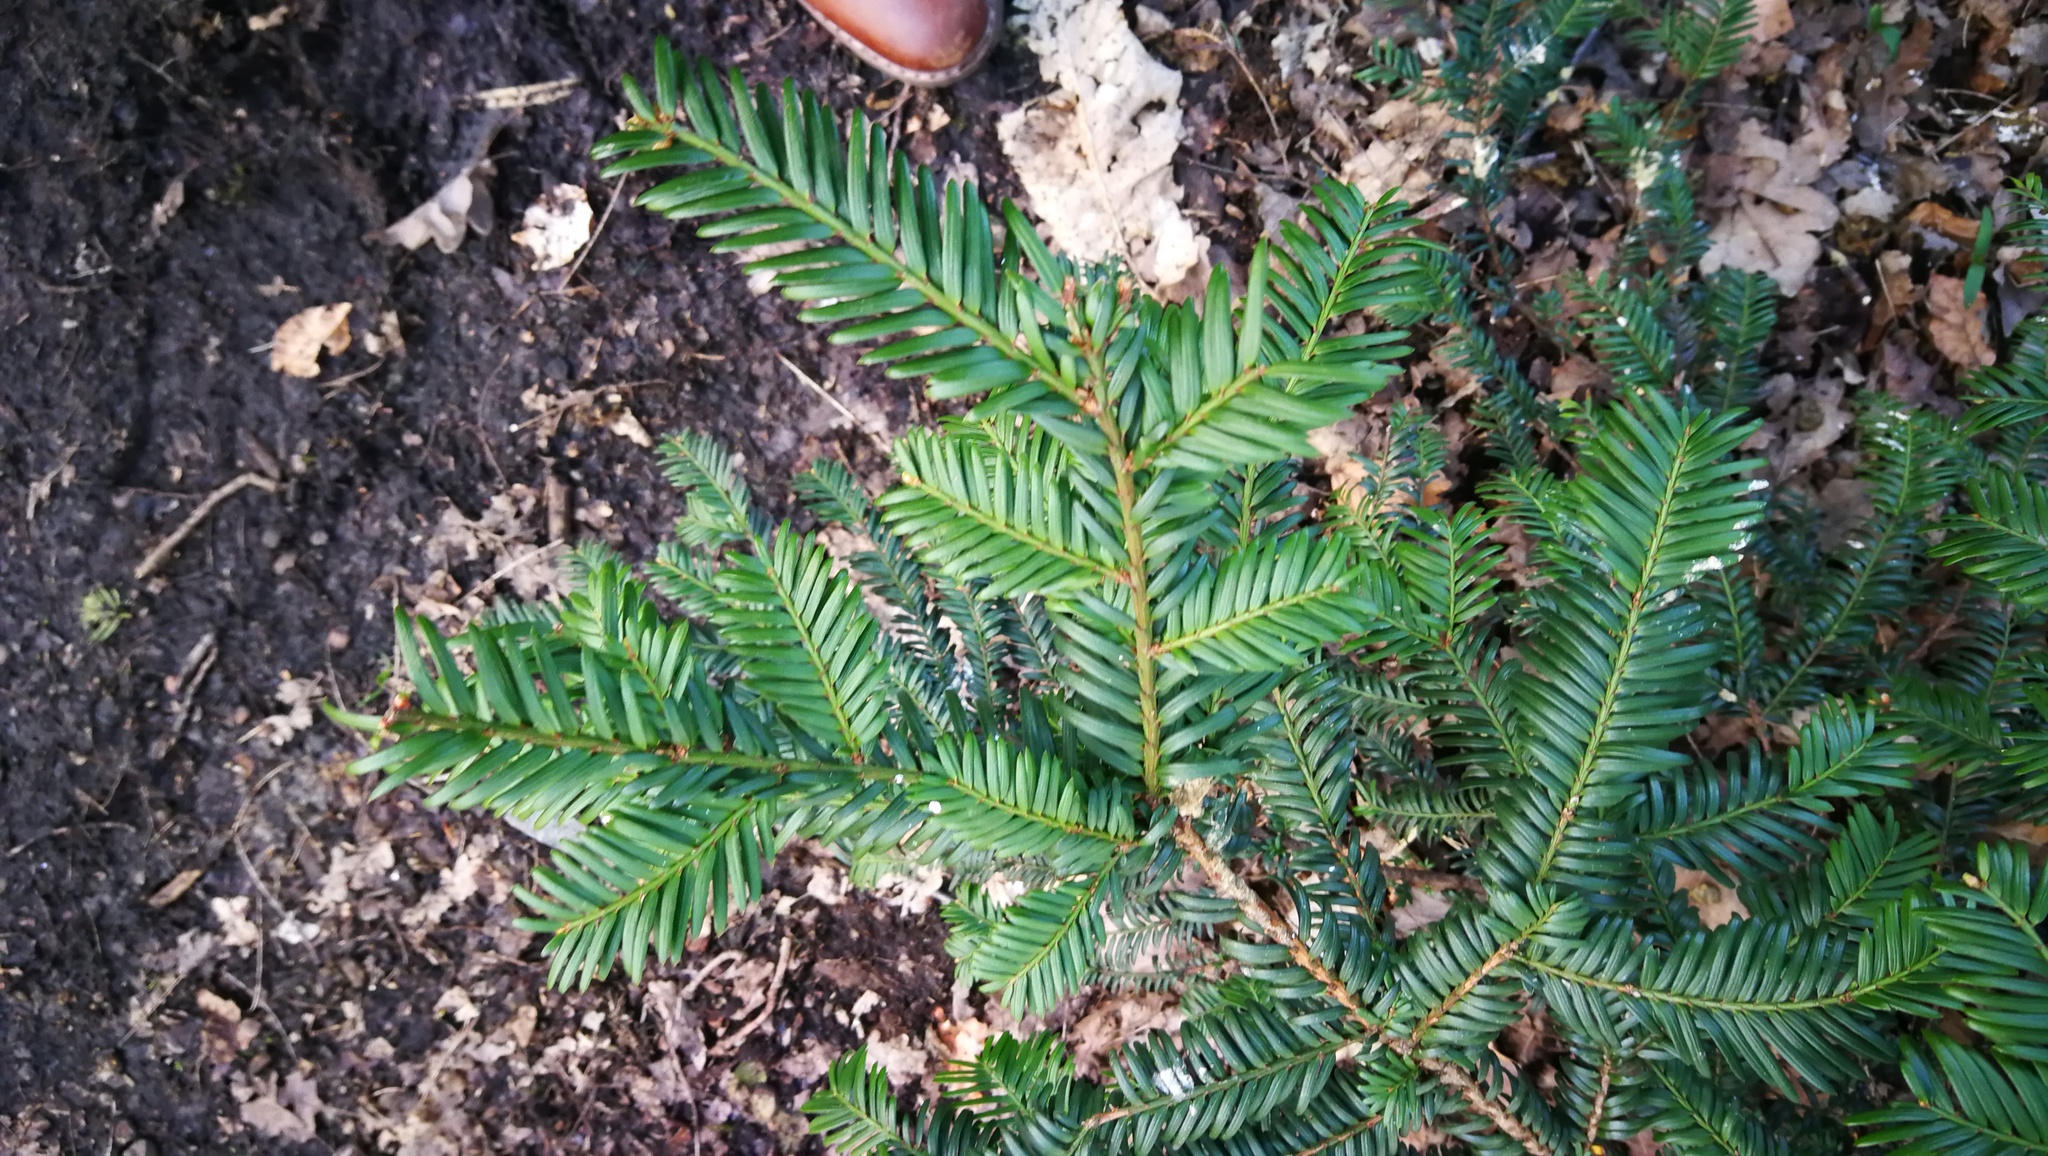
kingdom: Plantae
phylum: Tracheophyta
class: Pinopsida
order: Pinales
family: Taxaceae
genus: Taxus
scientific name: Taxus baccata
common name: Yew
